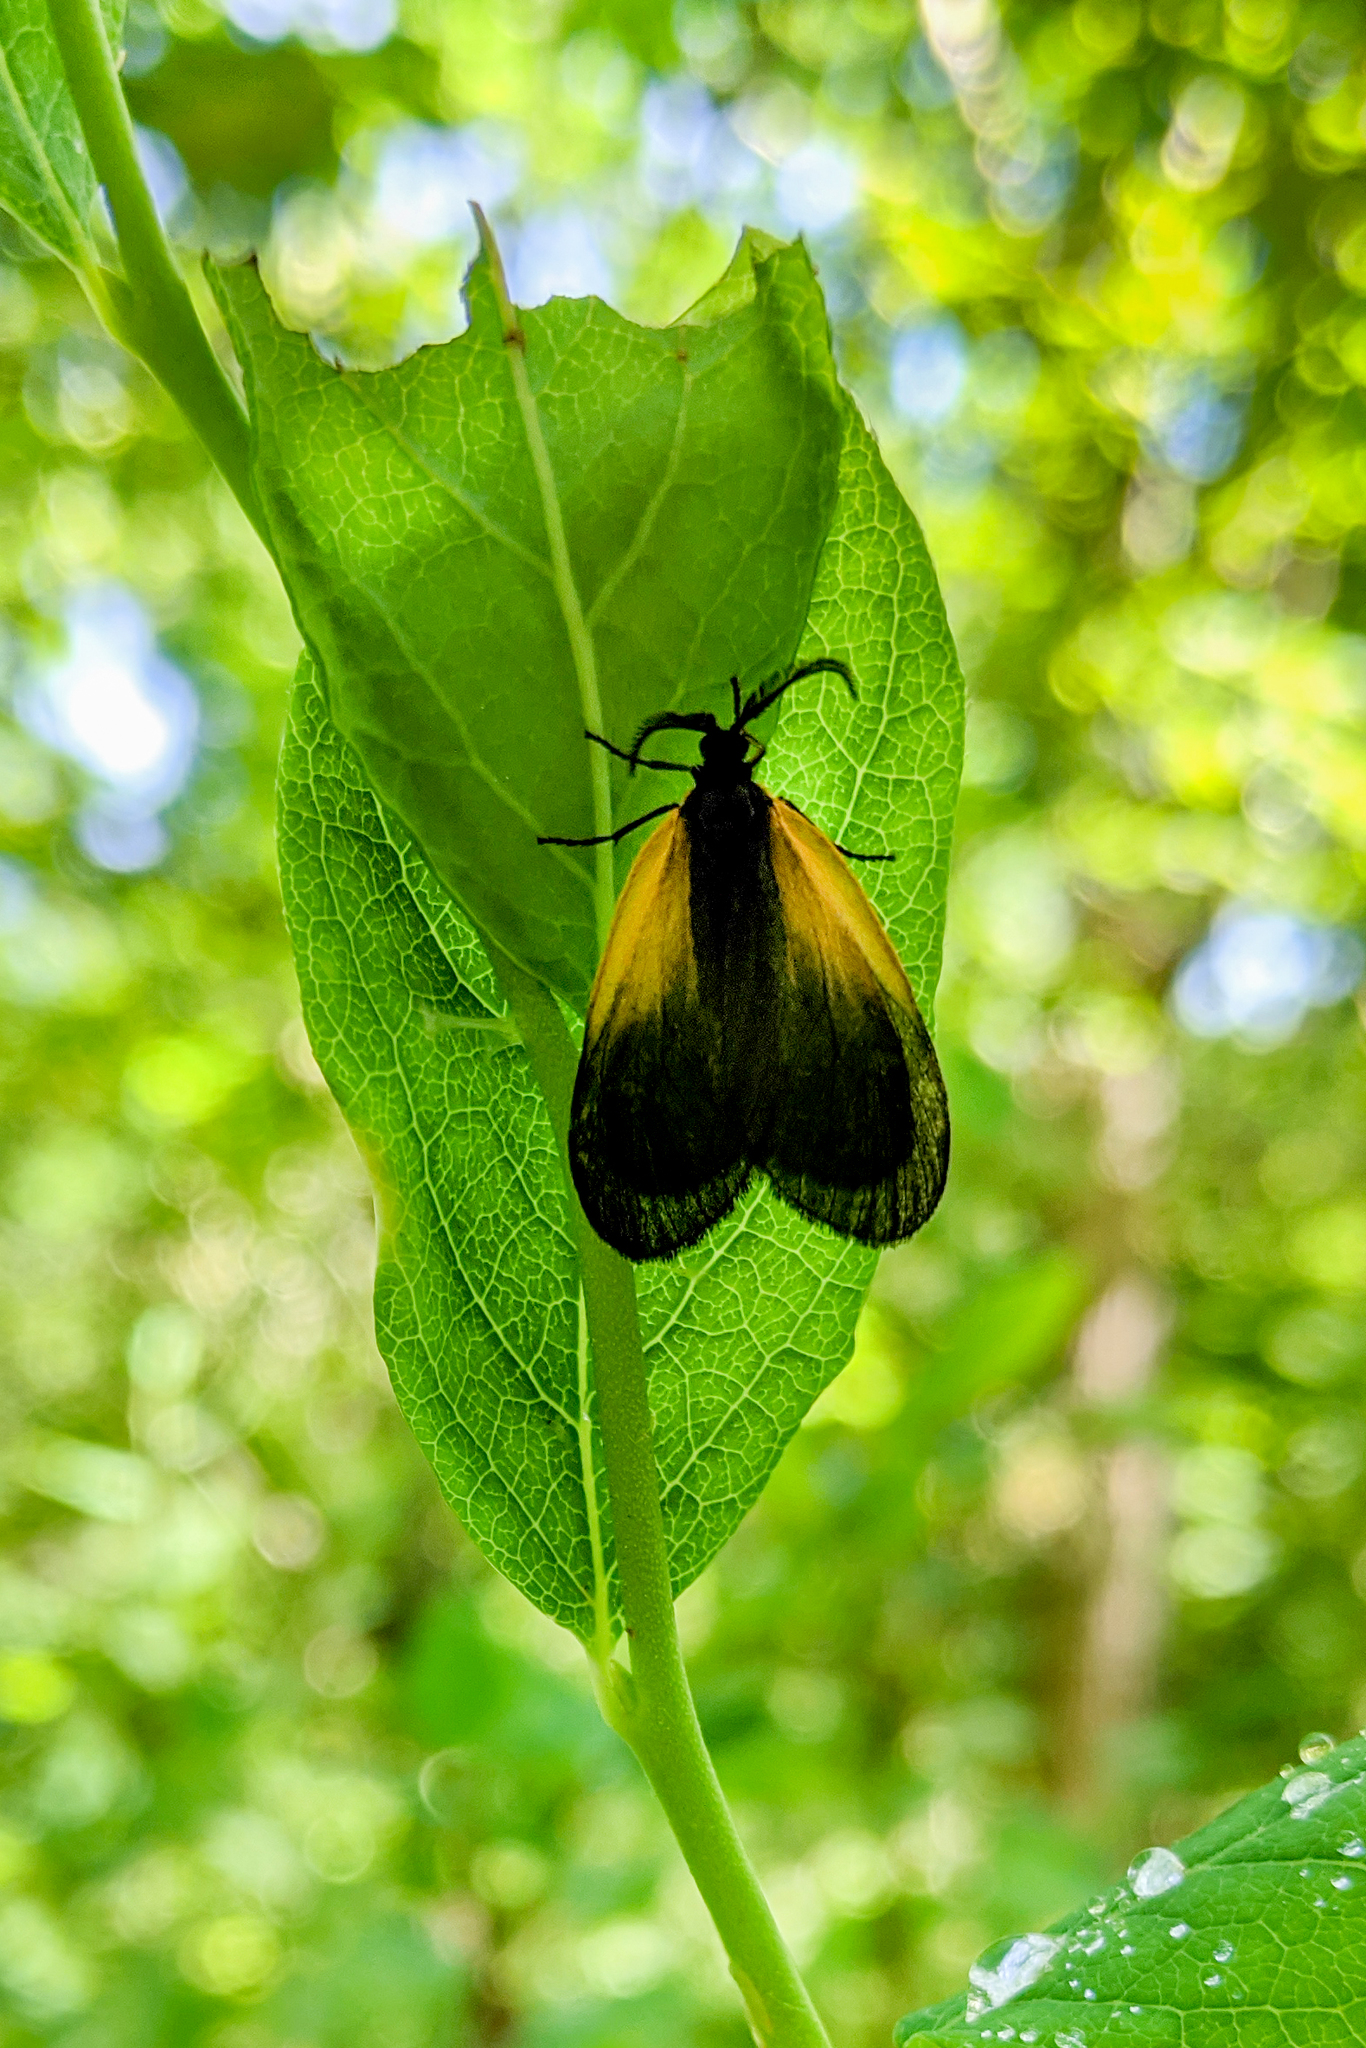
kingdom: Animalia
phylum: Arthropoda
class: Insecta
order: Lepidoptera
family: Zygaenidae
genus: Malthaca
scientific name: Malthaca dimidiata
